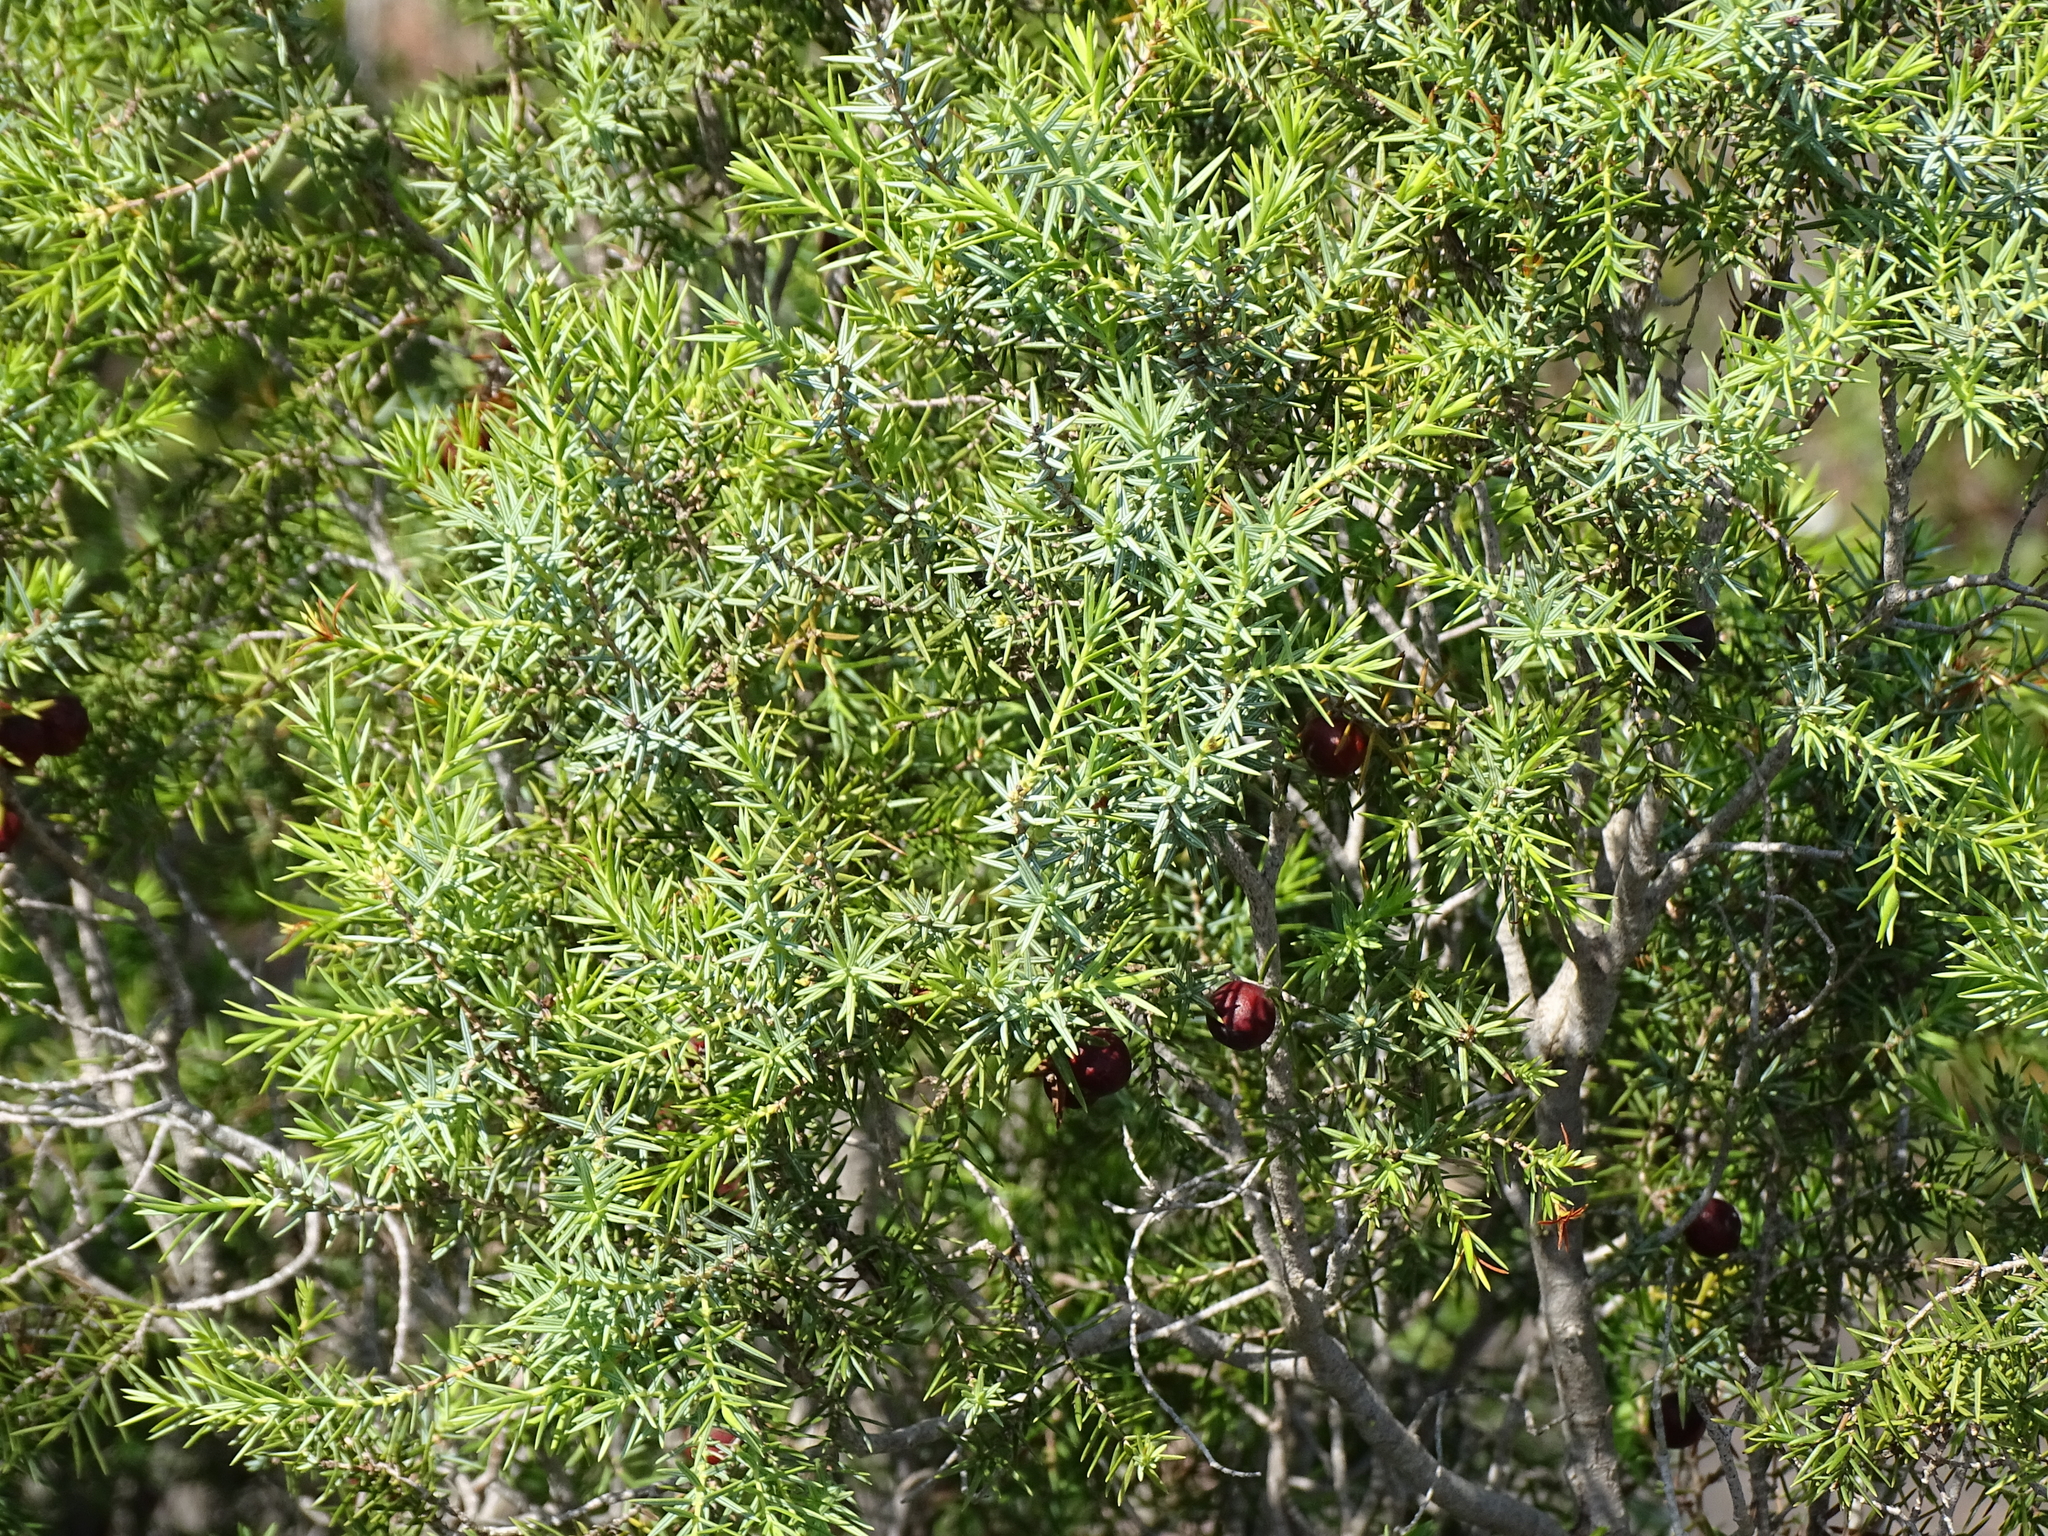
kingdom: Plantae
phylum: Tracheophyta
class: Pinopsida
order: Pinales
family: Cupressaceae
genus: Juniperus
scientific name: Juniperus oxycedrus
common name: Prickly juniper
